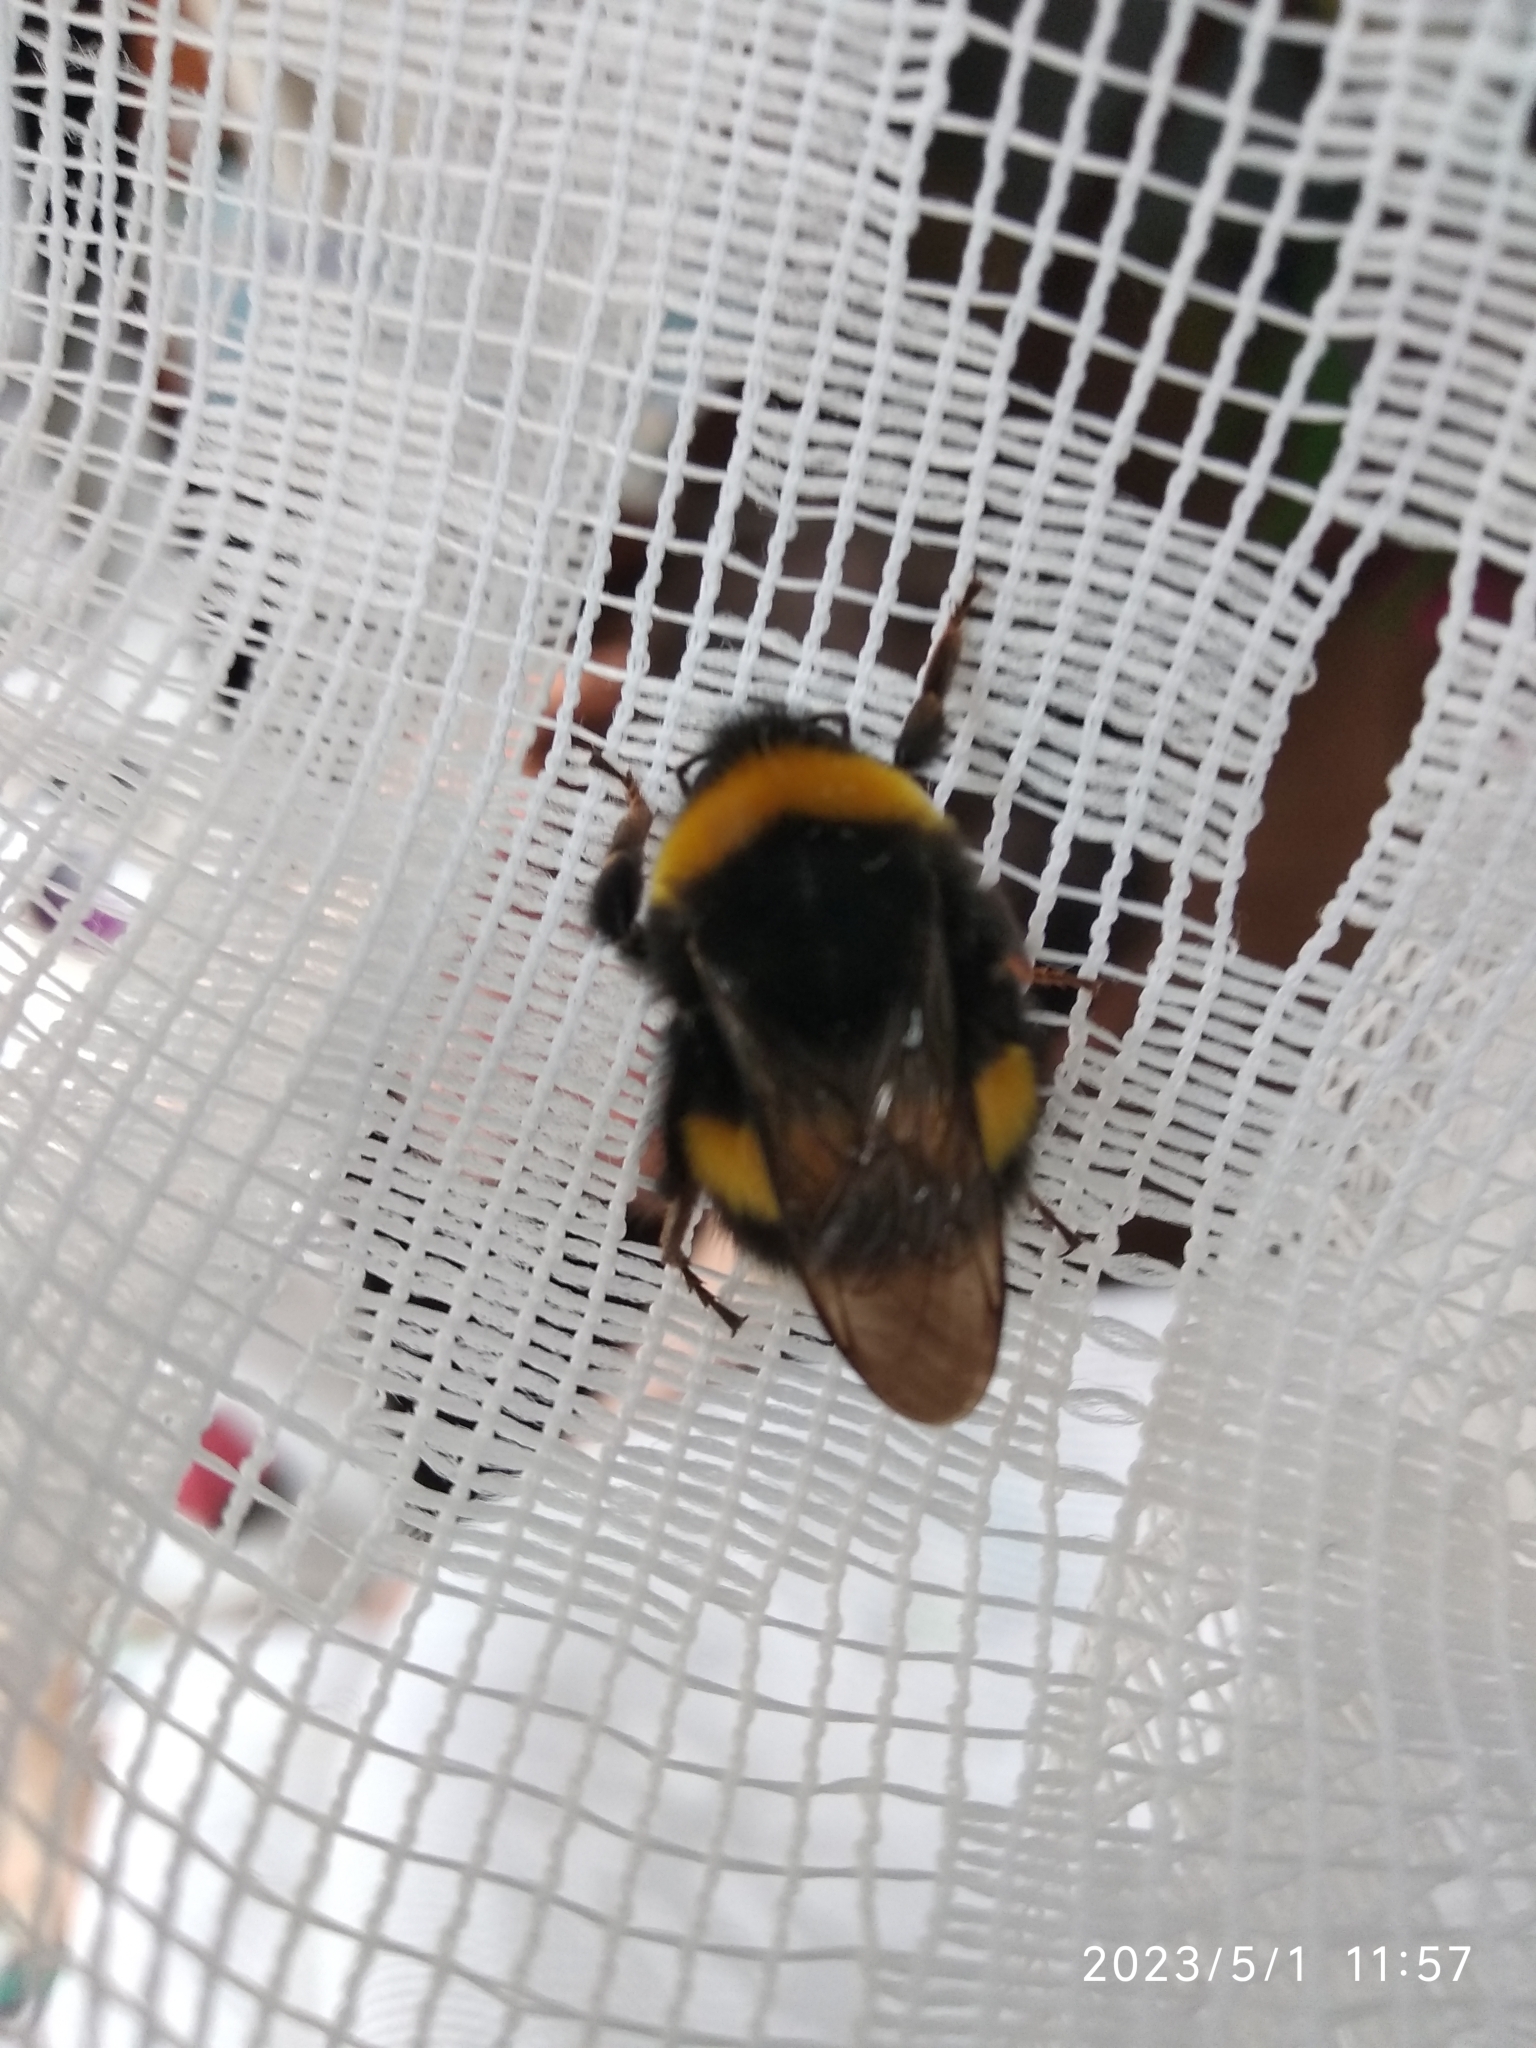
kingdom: Animalia
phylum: Arthropoda
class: Insecta
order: Hymenoptera
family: Apidae
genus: Bombus
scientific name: Bombus
